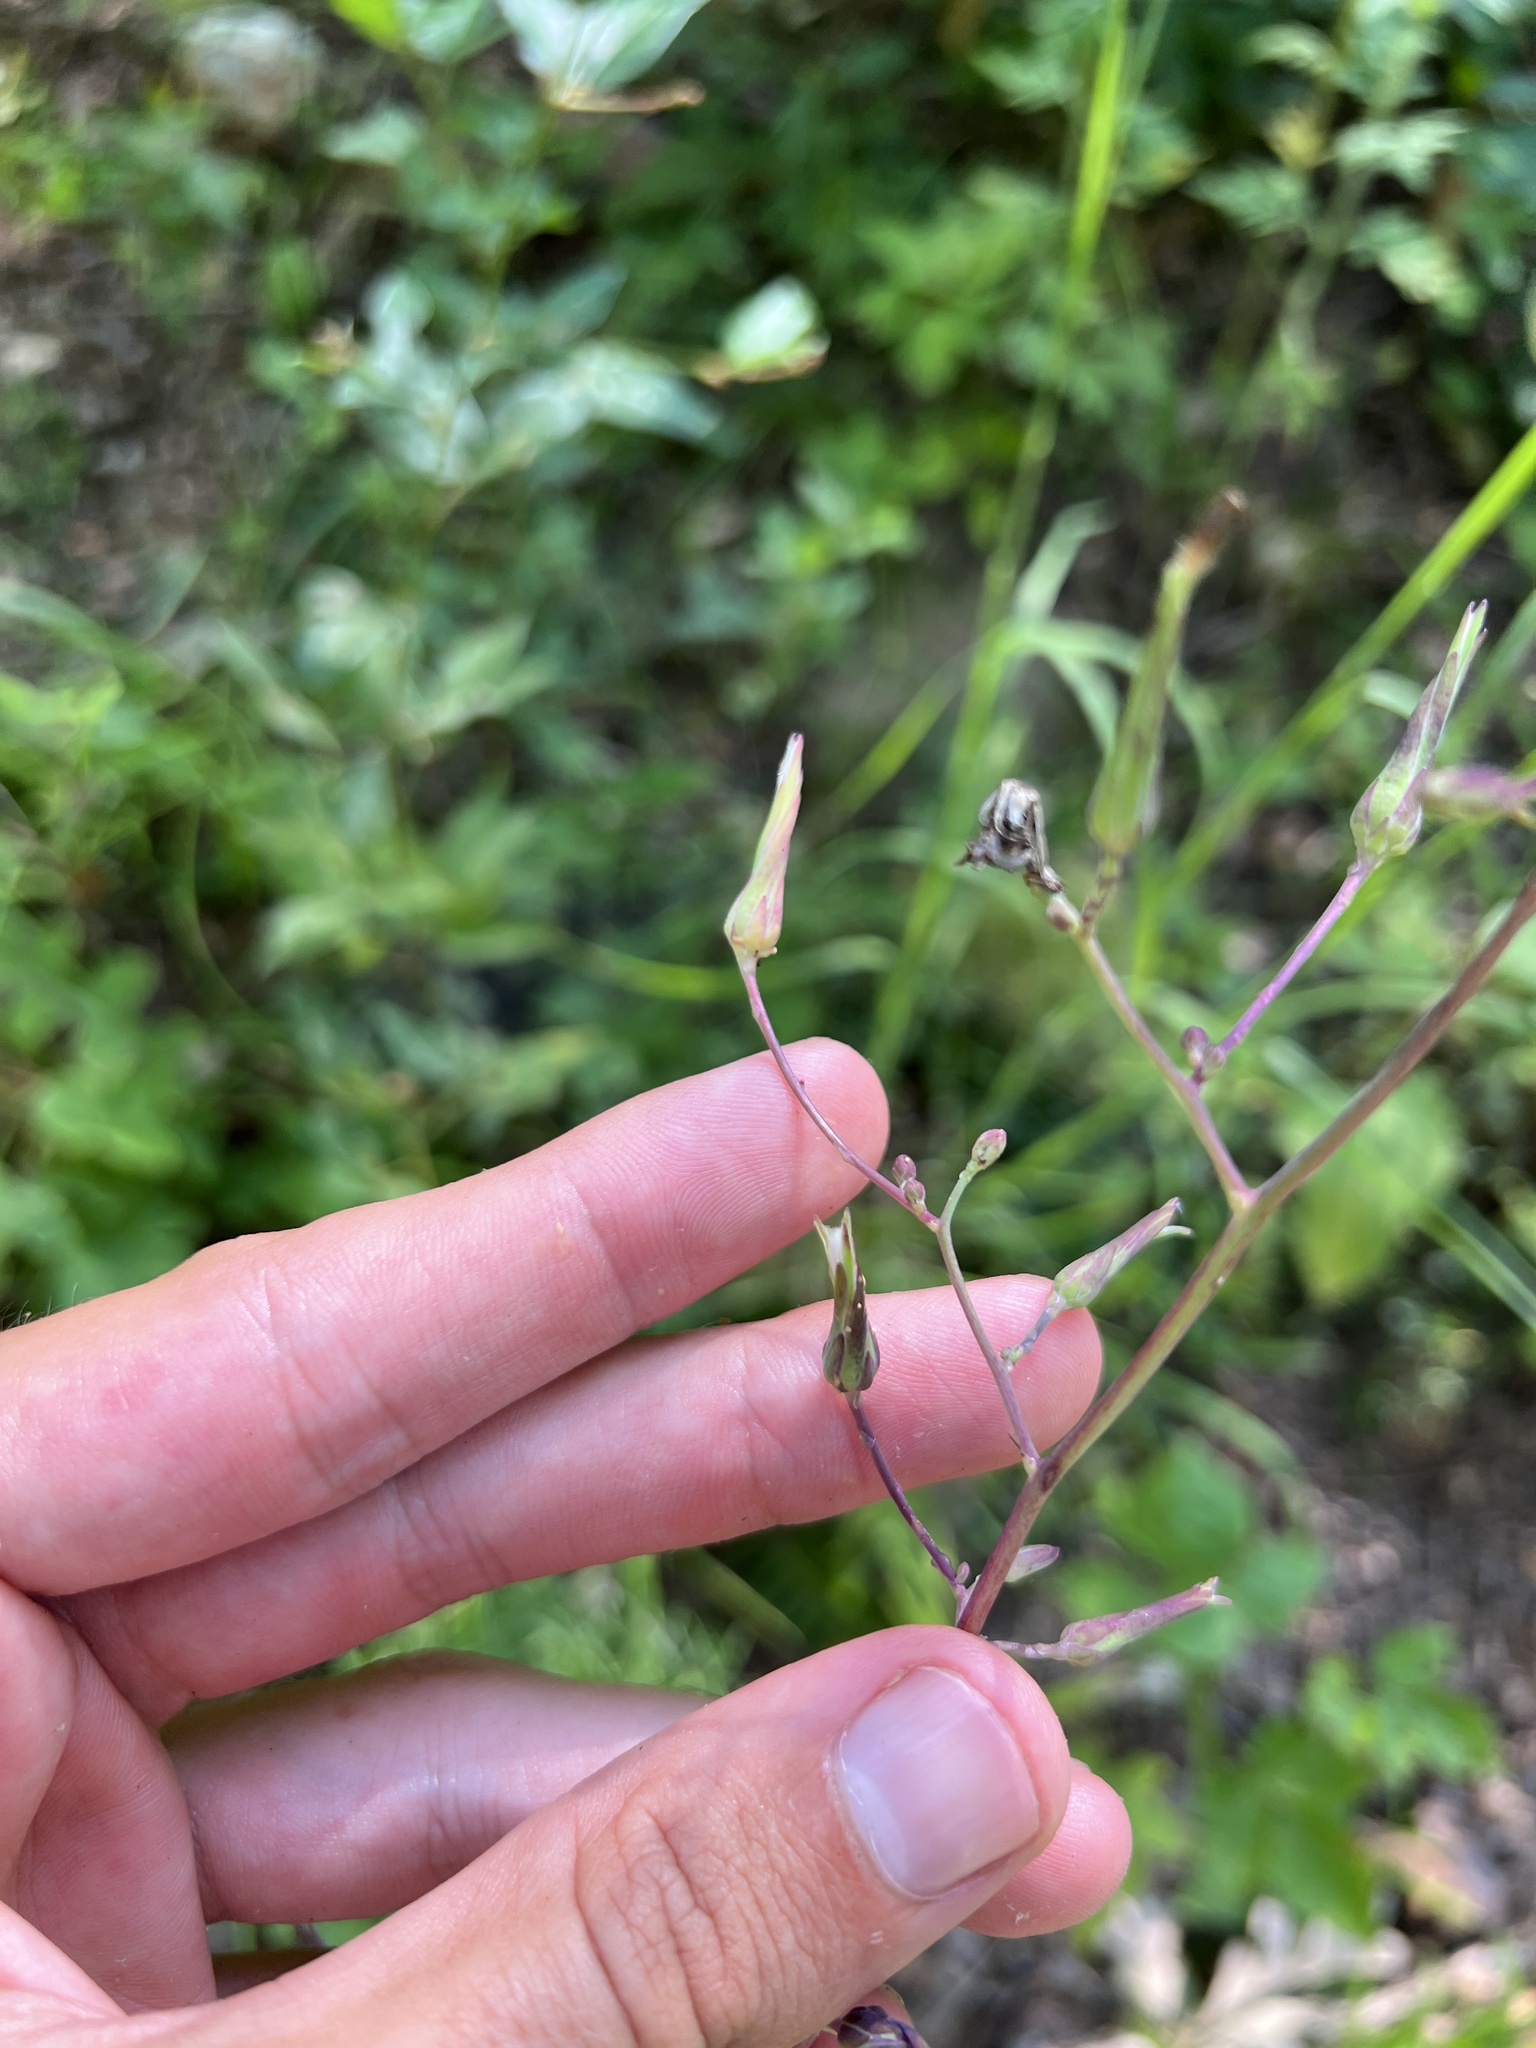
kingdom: Plantae
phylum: Tracheophyta
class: Magnoliopsida
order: Asterales
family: Asteraceae
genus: Lactuca
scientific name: Lactuca hirsuta
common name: Hairy lettuce
